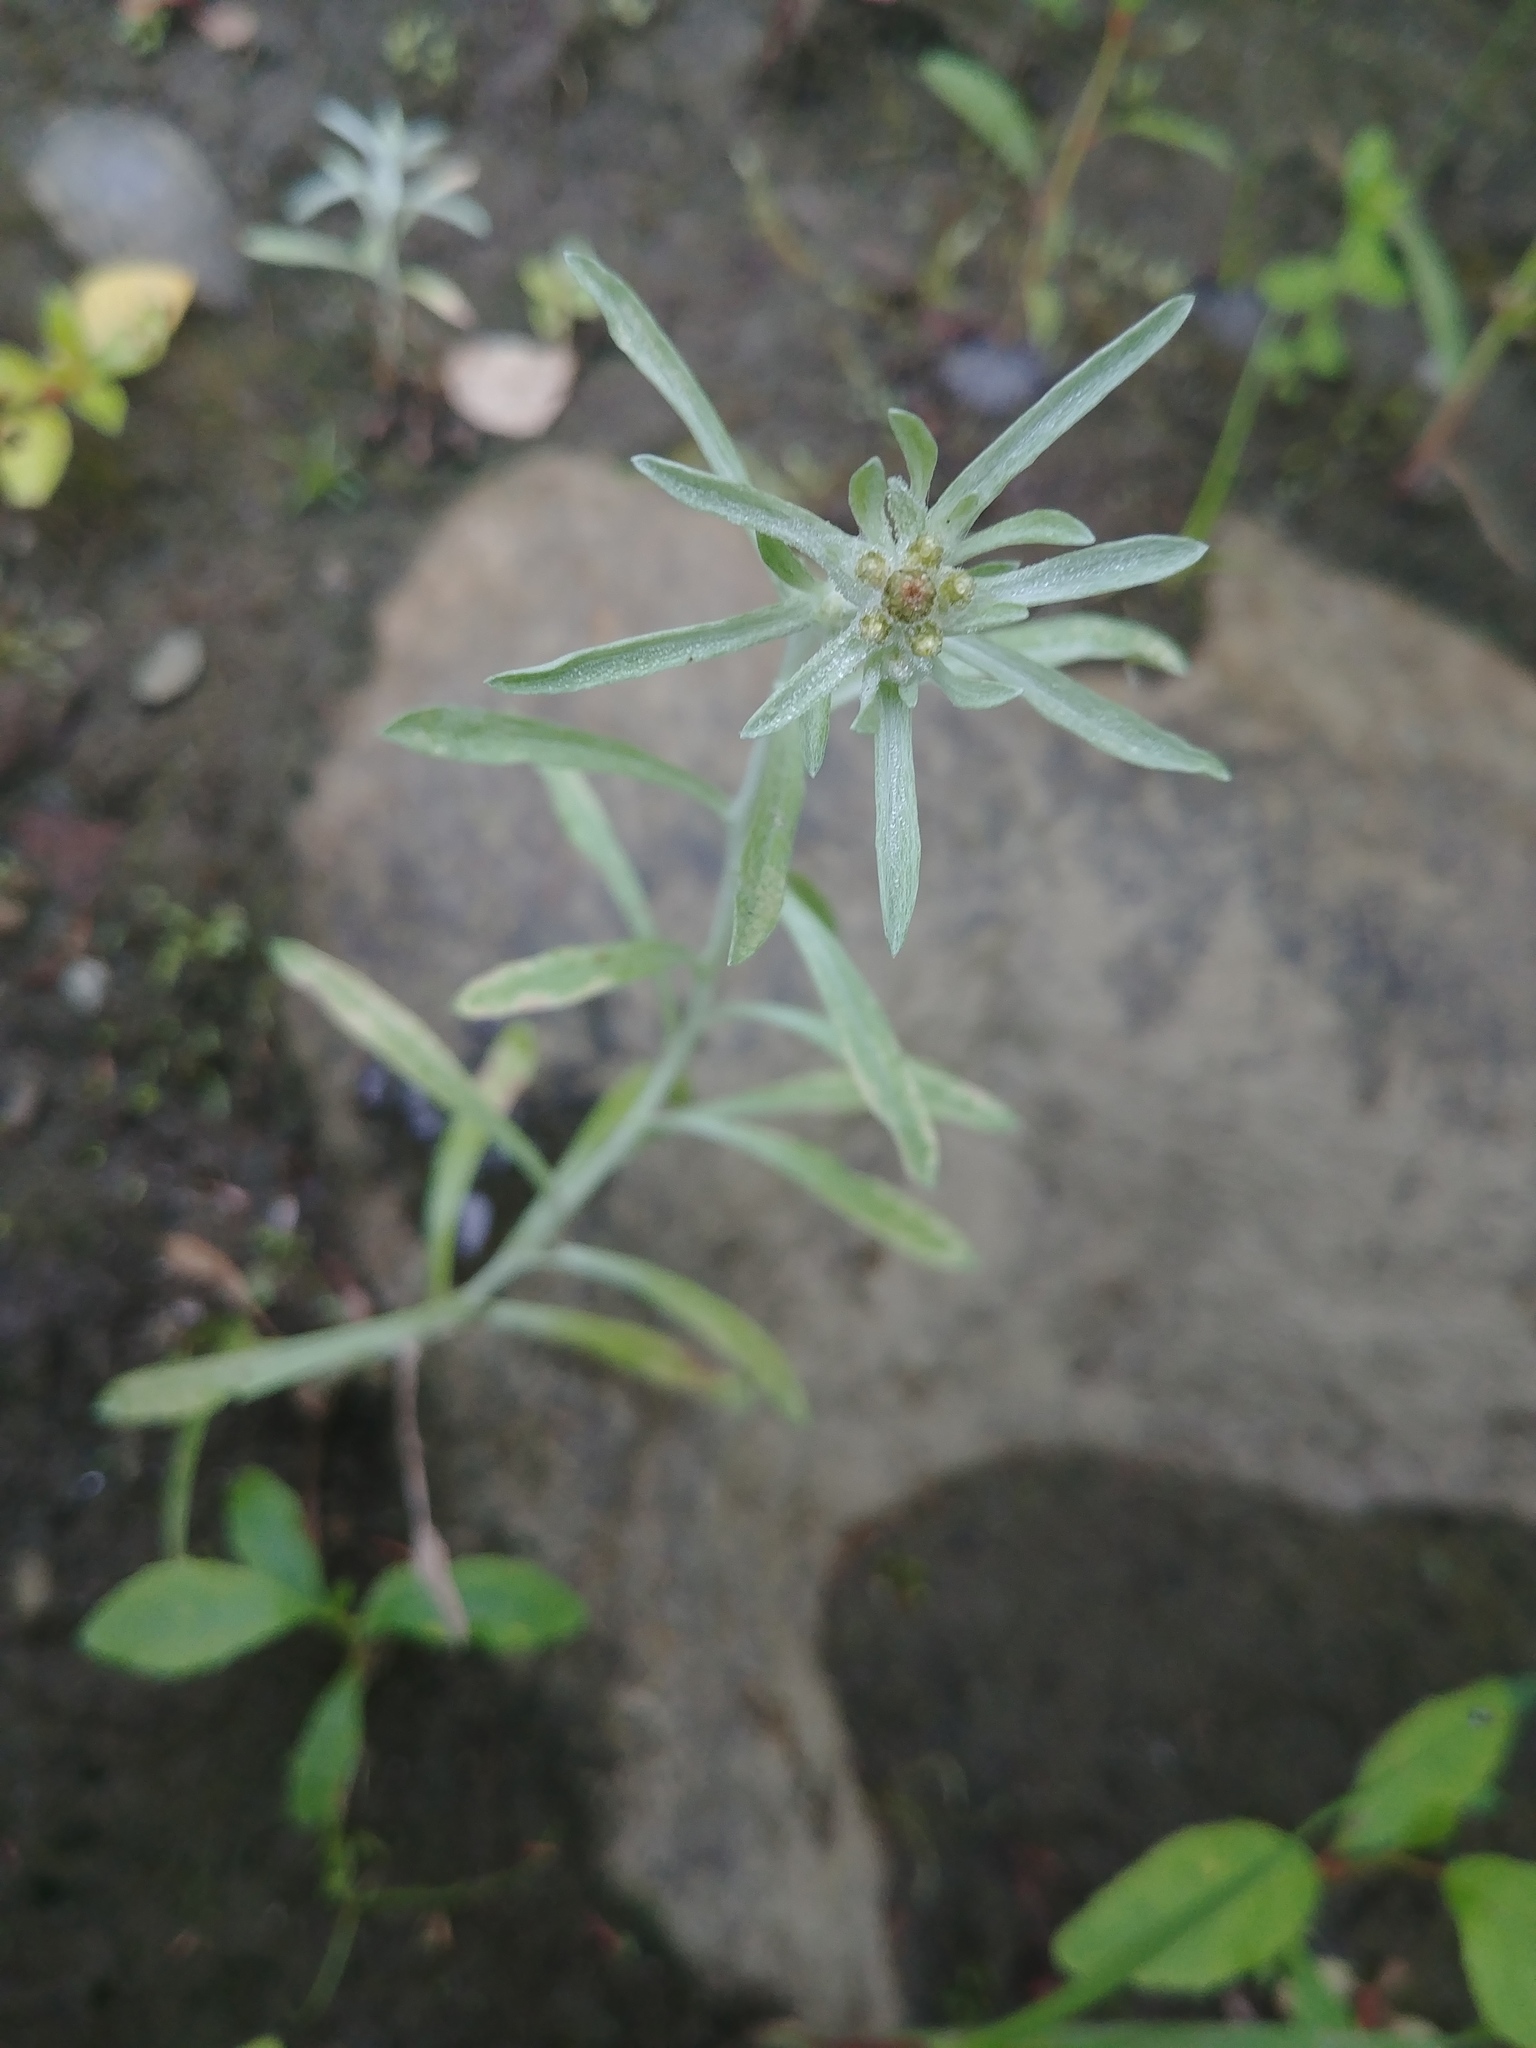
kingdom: Plantae
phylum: Tracheophyta
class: Magnoliopsida
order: Asterales
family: Asteraceae
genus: Gnaphalium
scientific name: Gnaphalium uliginosum
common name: Marsh cudweed
